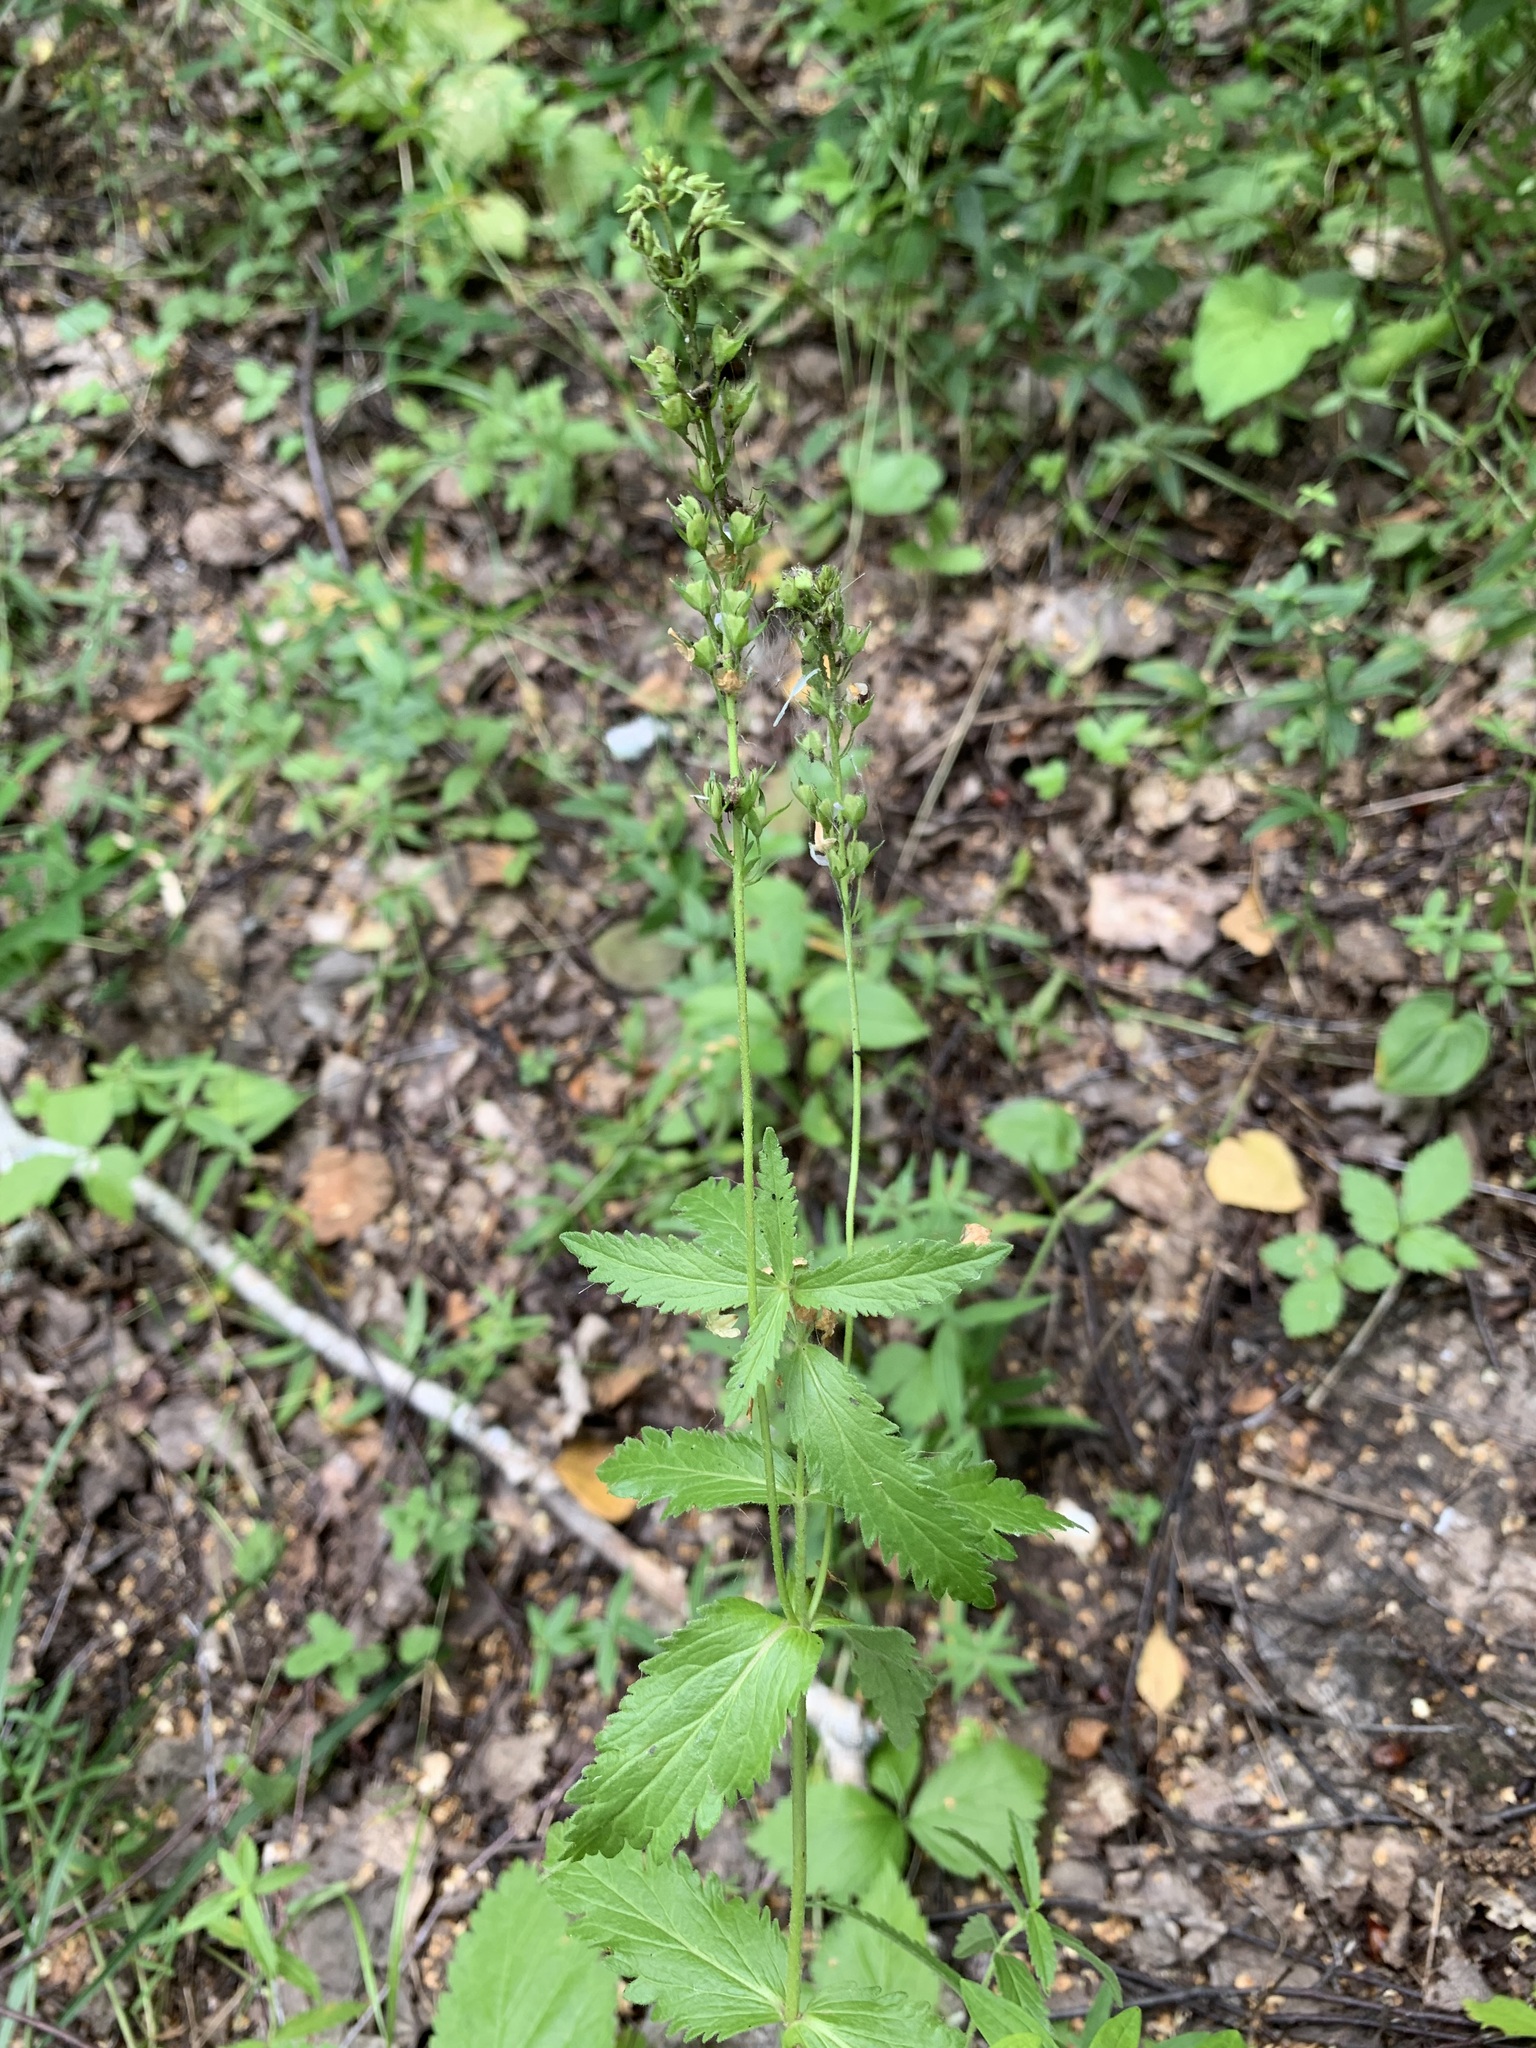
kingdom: Plantae
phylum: Tracheophyta
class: Magnoliopsida
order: Lamiales
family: Plantaginaceae
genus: Veronica
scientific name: Veronica teucrium
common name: Large speedwell
